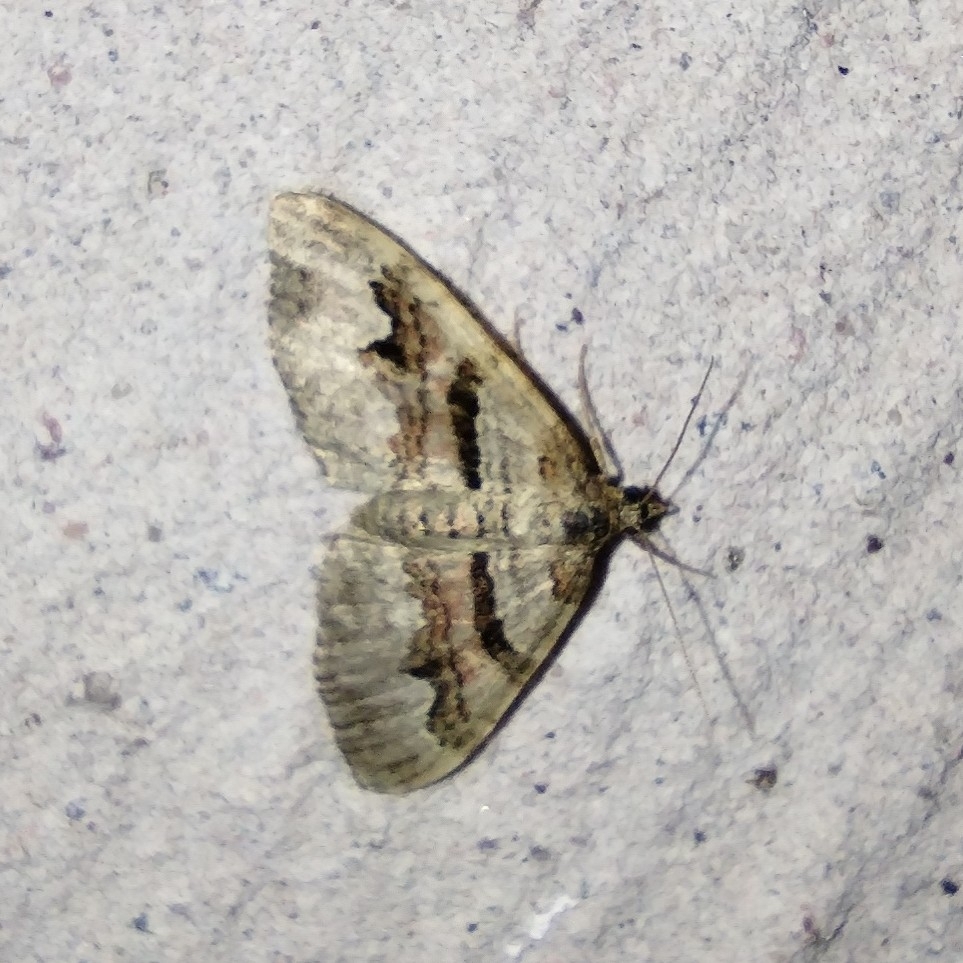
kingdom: Animalia
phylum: Arthropoda
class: Insecta
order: Lepidoptera
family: Geometridae
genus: Xanthorhoe
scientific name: Xanthorhoe designata
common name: Flame carpet
